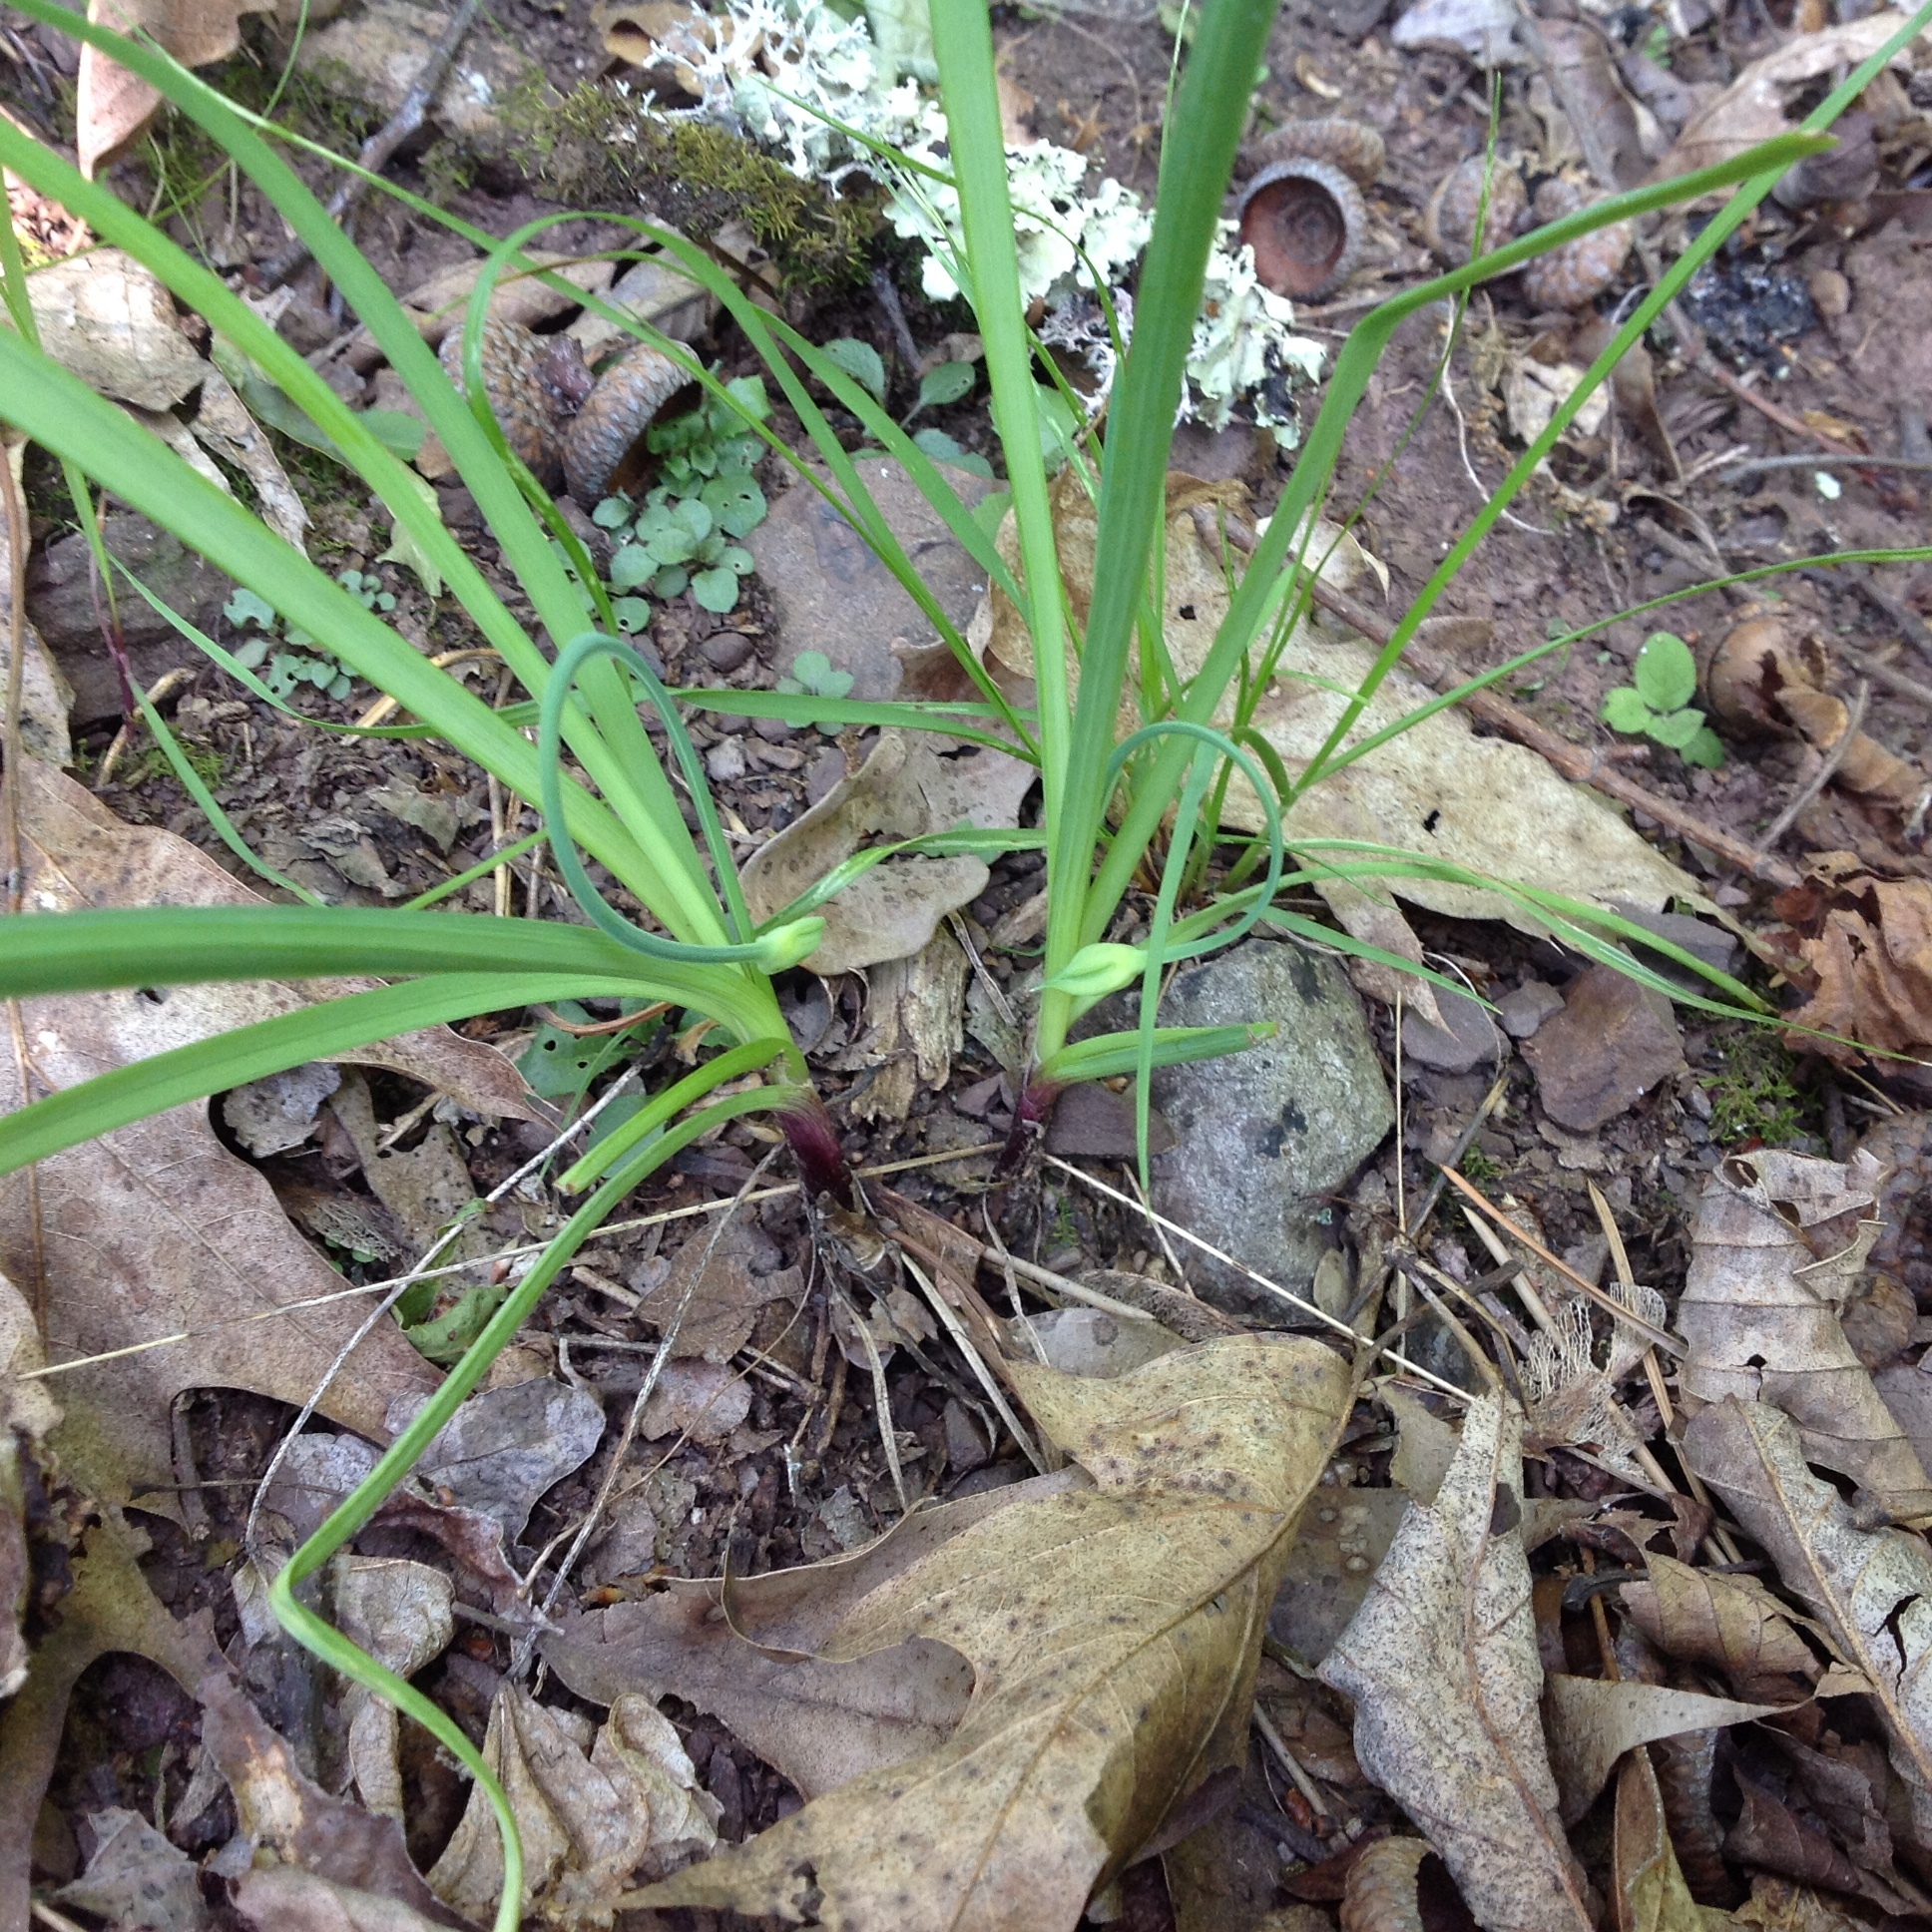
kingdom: Plantae
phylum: Tracheophyta
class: Liliopsida
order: Asparagales
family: Amaryllidaceae
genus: Allium
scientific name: Allium cernuum
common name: Nodding onion
